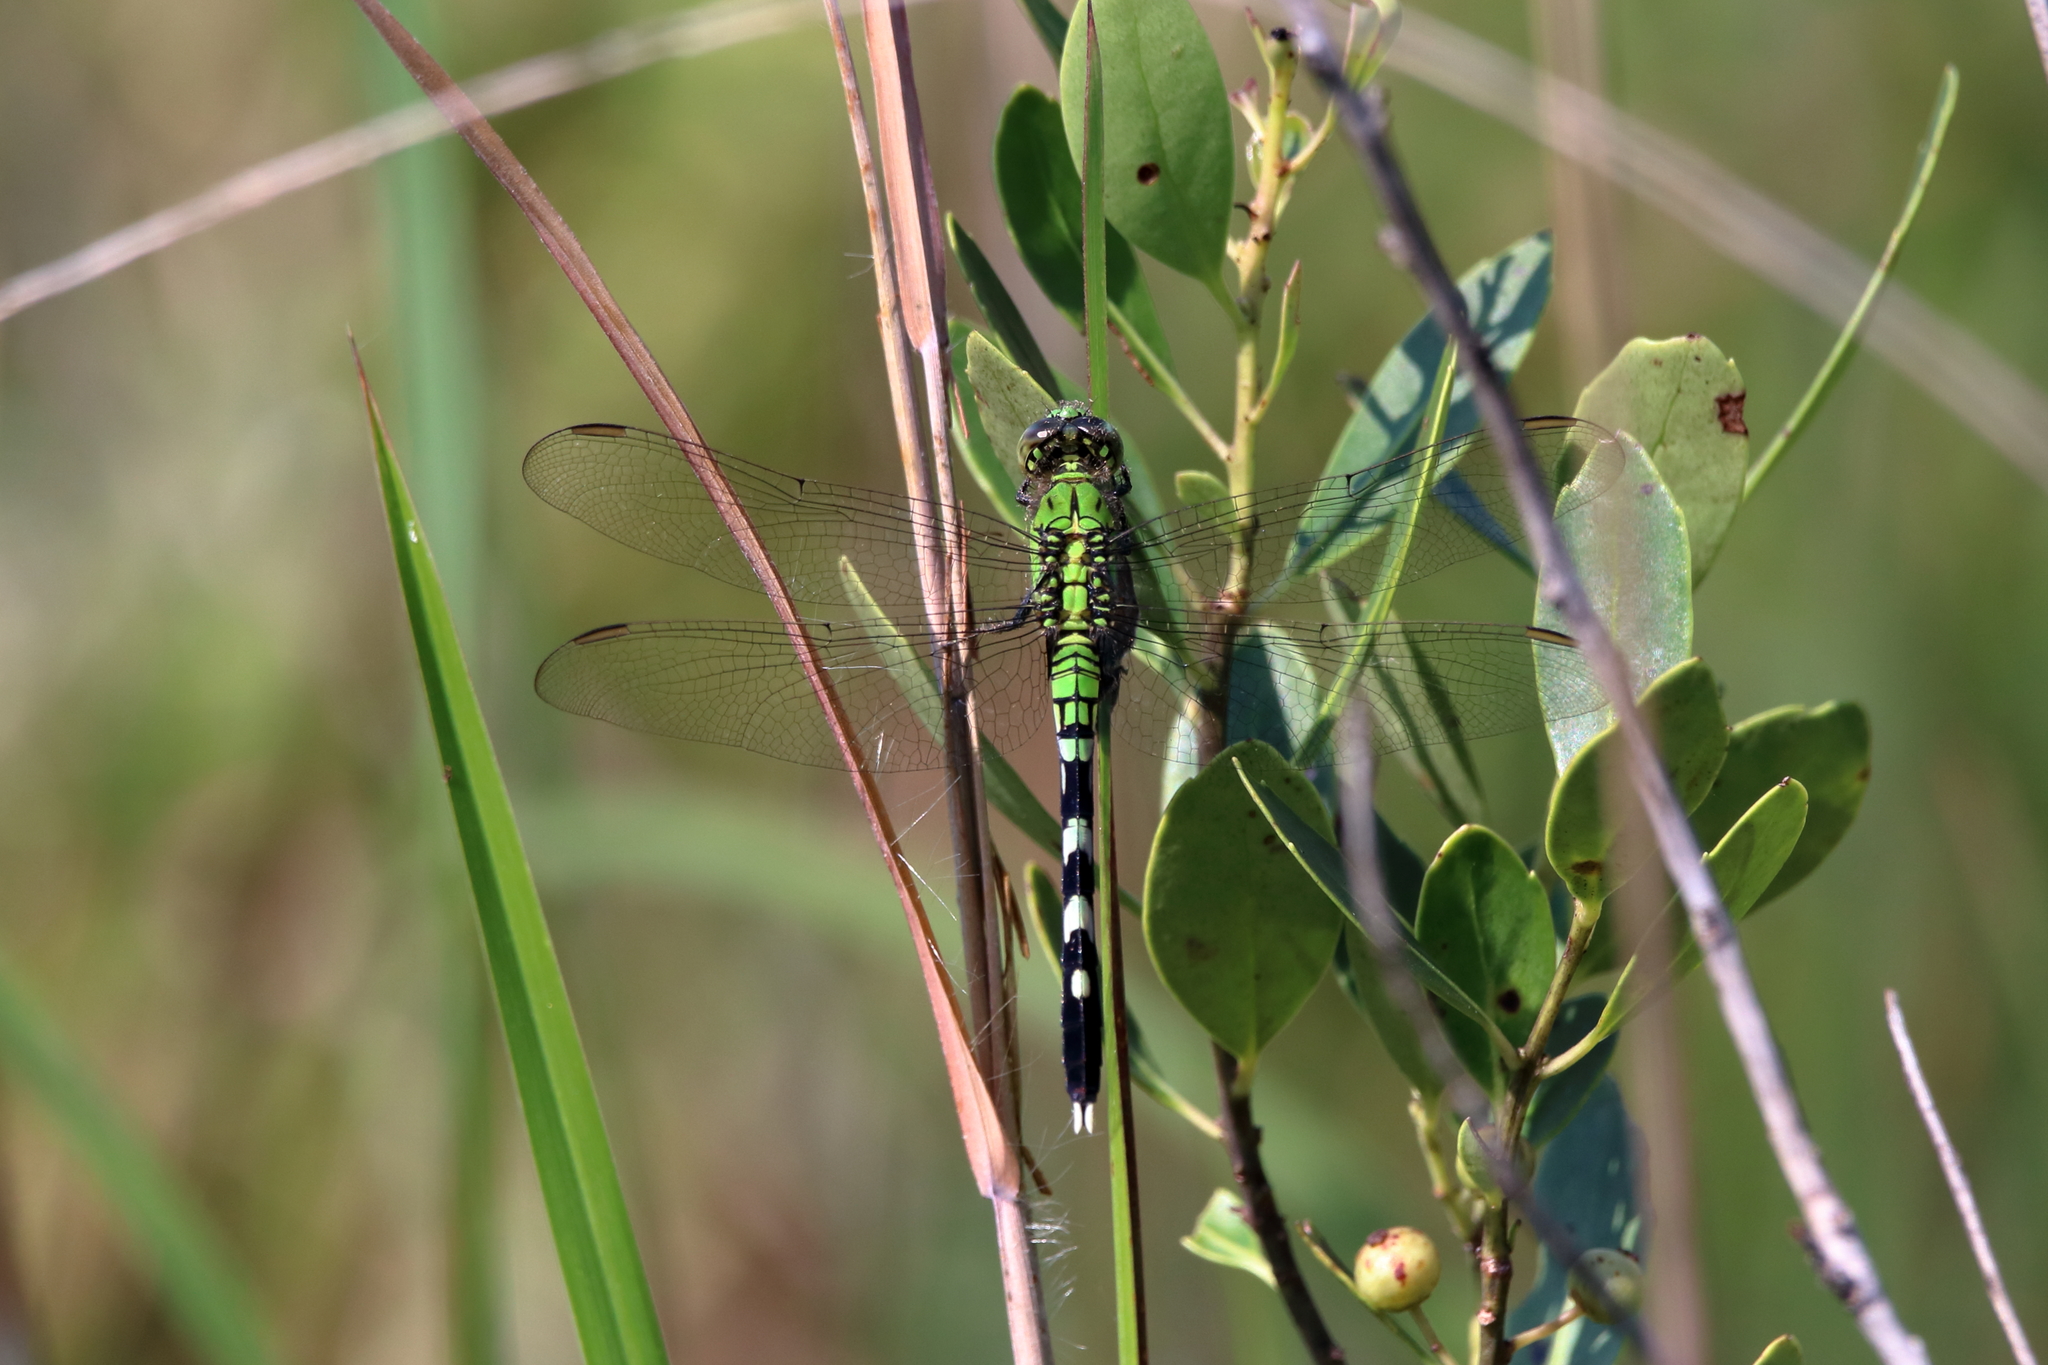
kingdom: Animalia
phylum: Arthropoda
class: Insecta
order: Odonata
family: Libellulidae
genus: Erythemis
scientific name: Erythemis simplicicollis
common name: Eastern pondhawk
